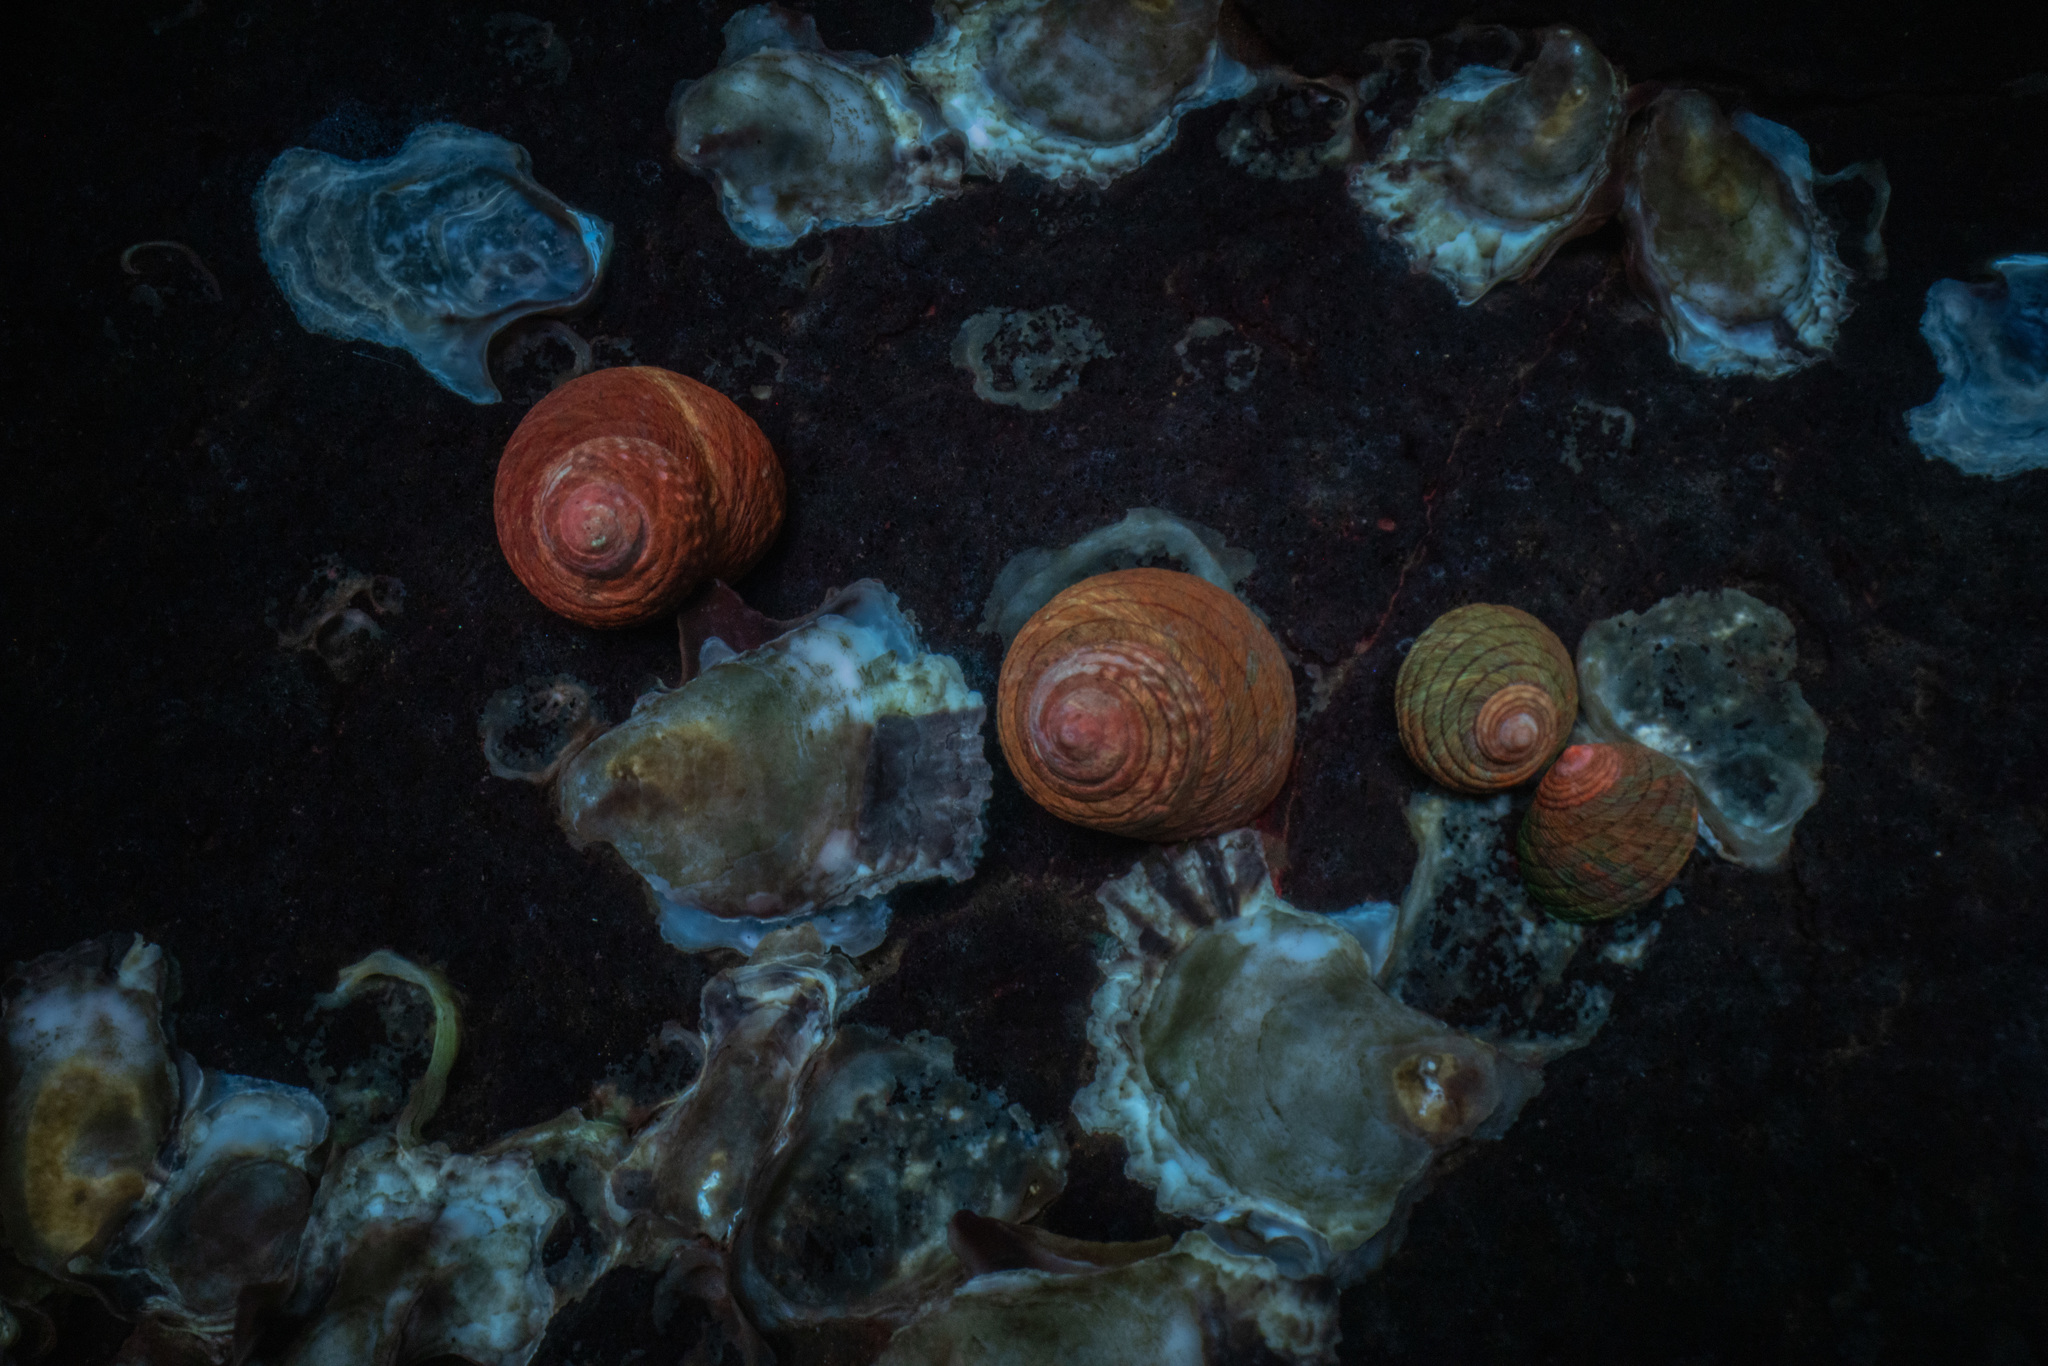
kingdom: Animalia
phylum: Mollusca
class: Gastropoda
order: Trochida
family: Trochidae
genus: Diloma
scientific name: Diloma aethiops
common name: Scorched monodont
